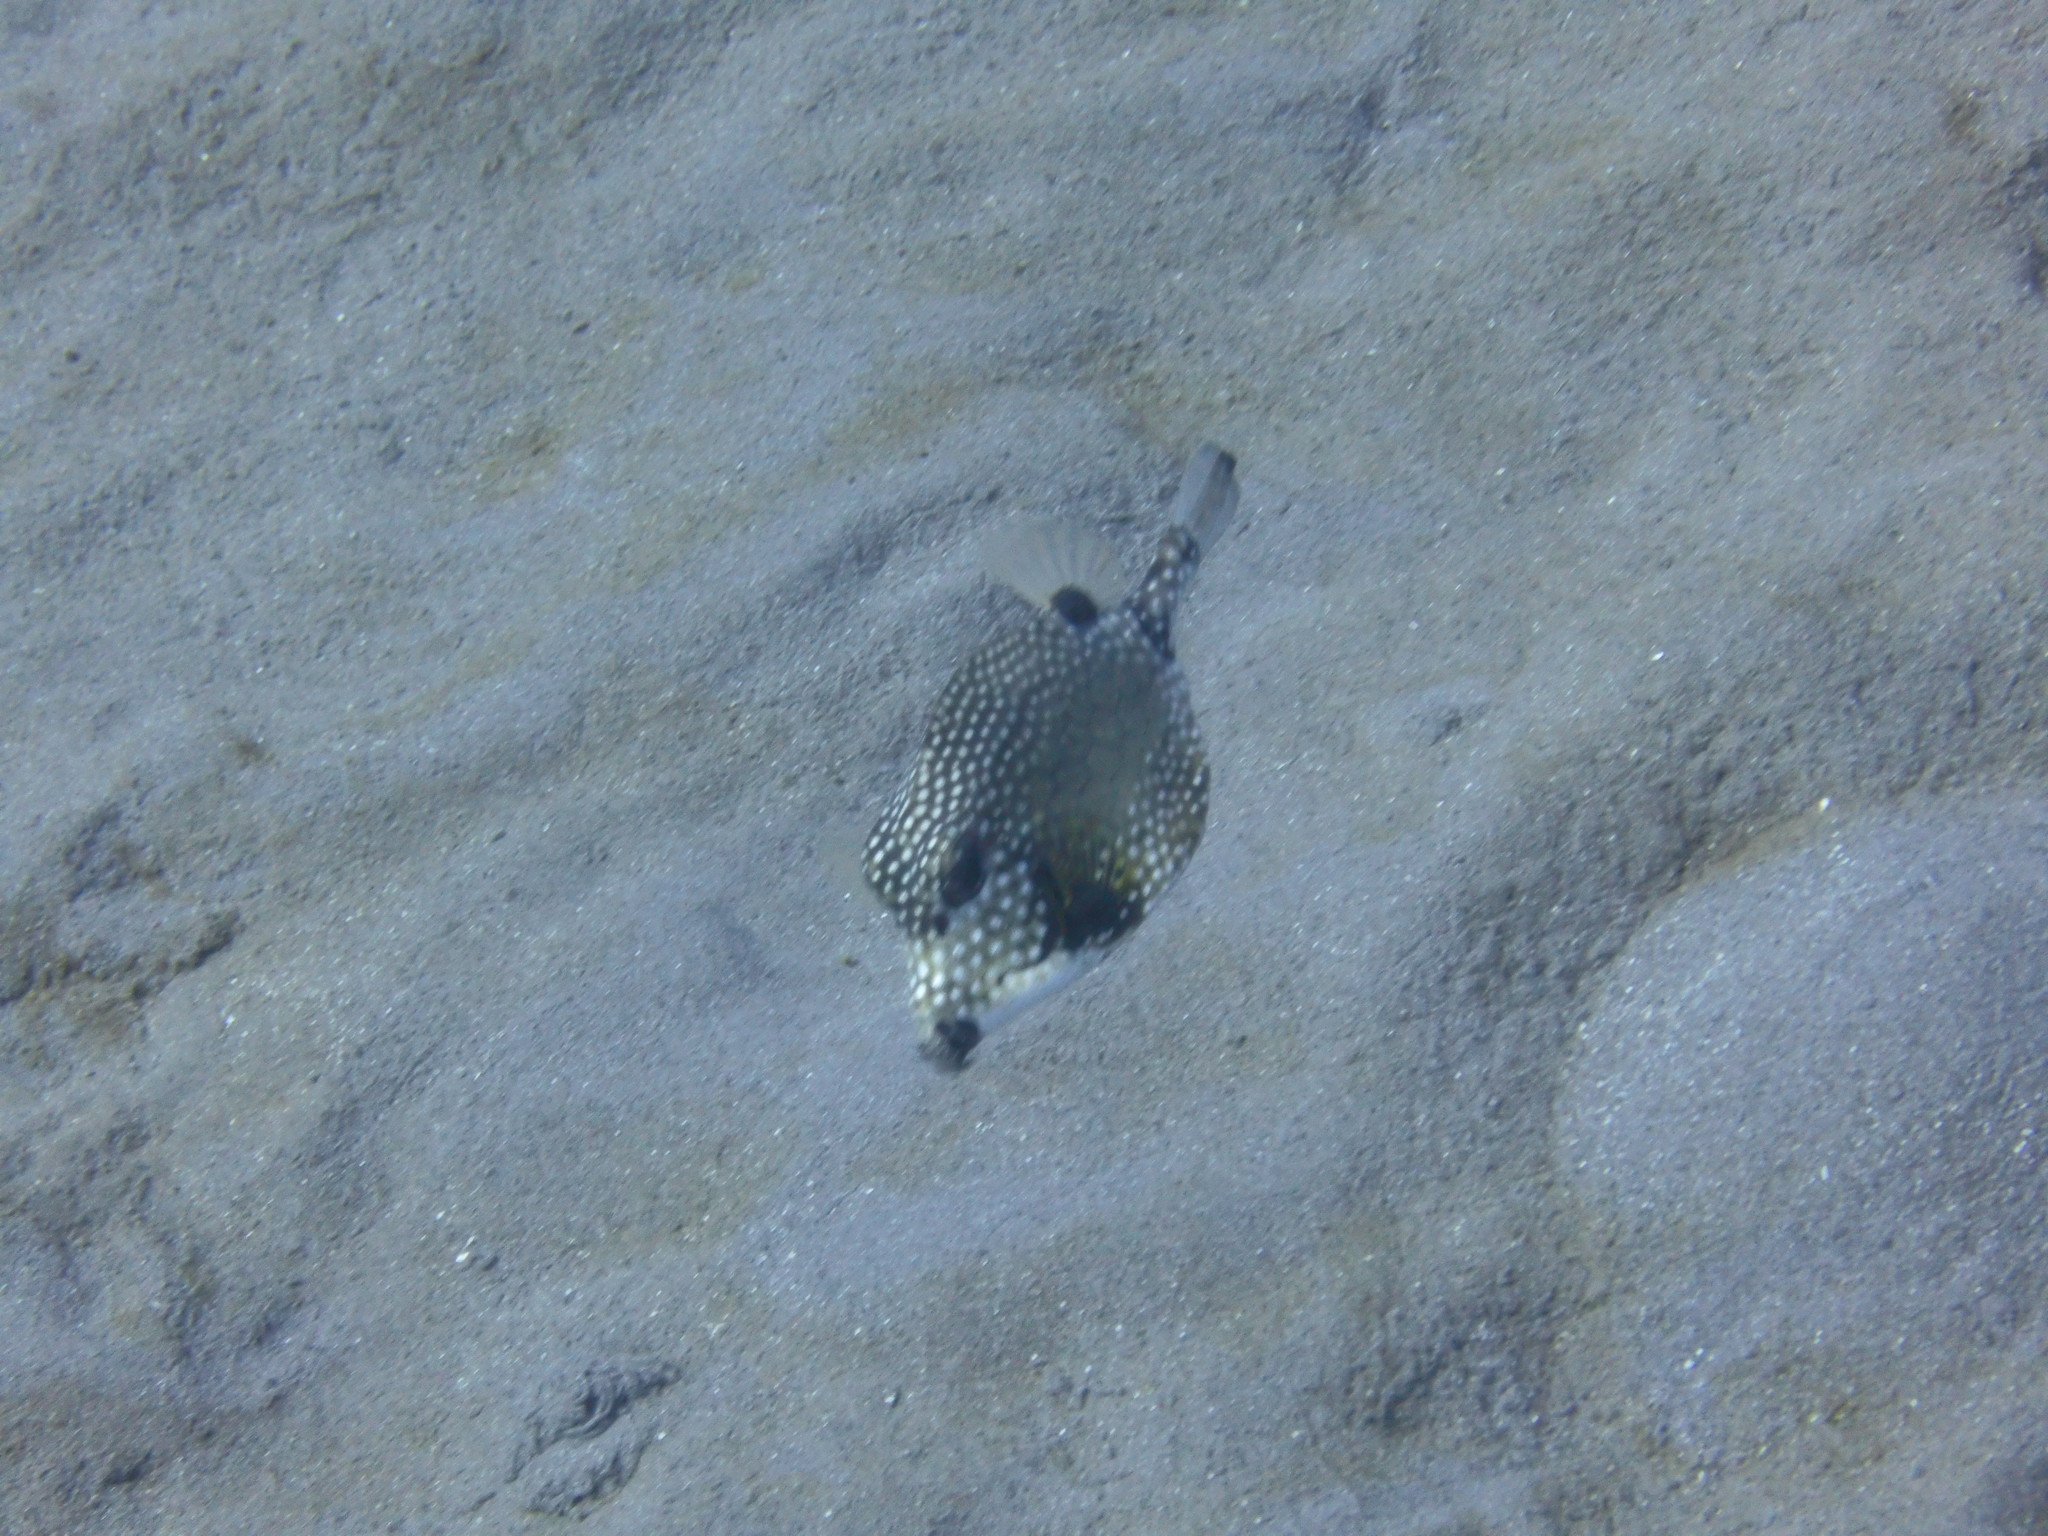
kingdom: Animalia
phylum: Chordata
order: Tetraodontiformes
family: Ostraciidae
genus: Lactophrys
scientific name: Lactophrys triqueter
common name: Smooth trunkfish
